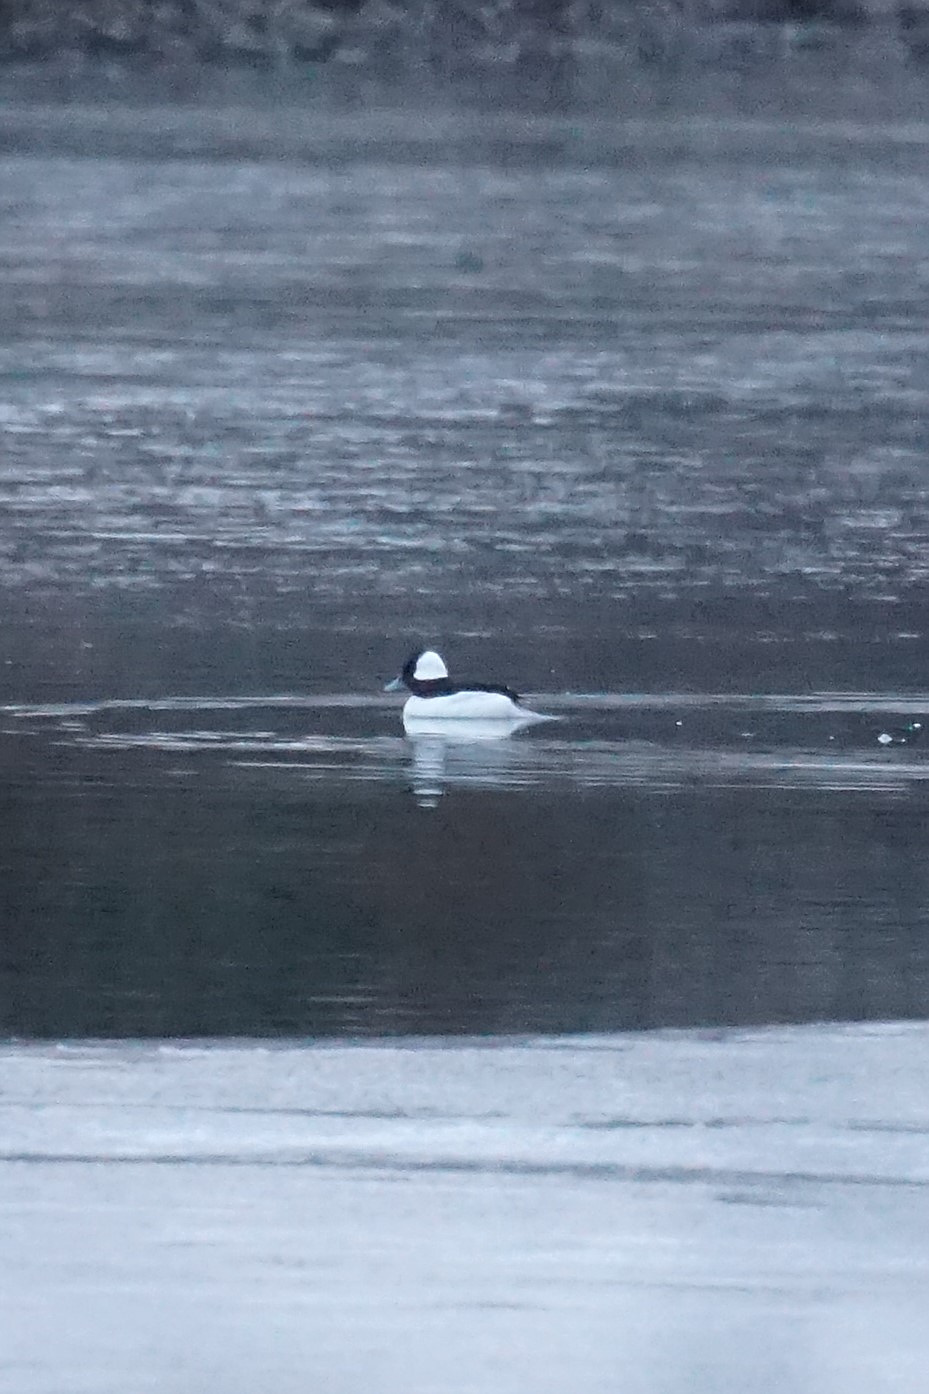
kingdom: Animalia
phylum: Chordata
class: Aves
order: Anseriformes
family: Anatidae
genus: Bucephala
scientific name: Bucephala albeola
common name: Bufflehead
